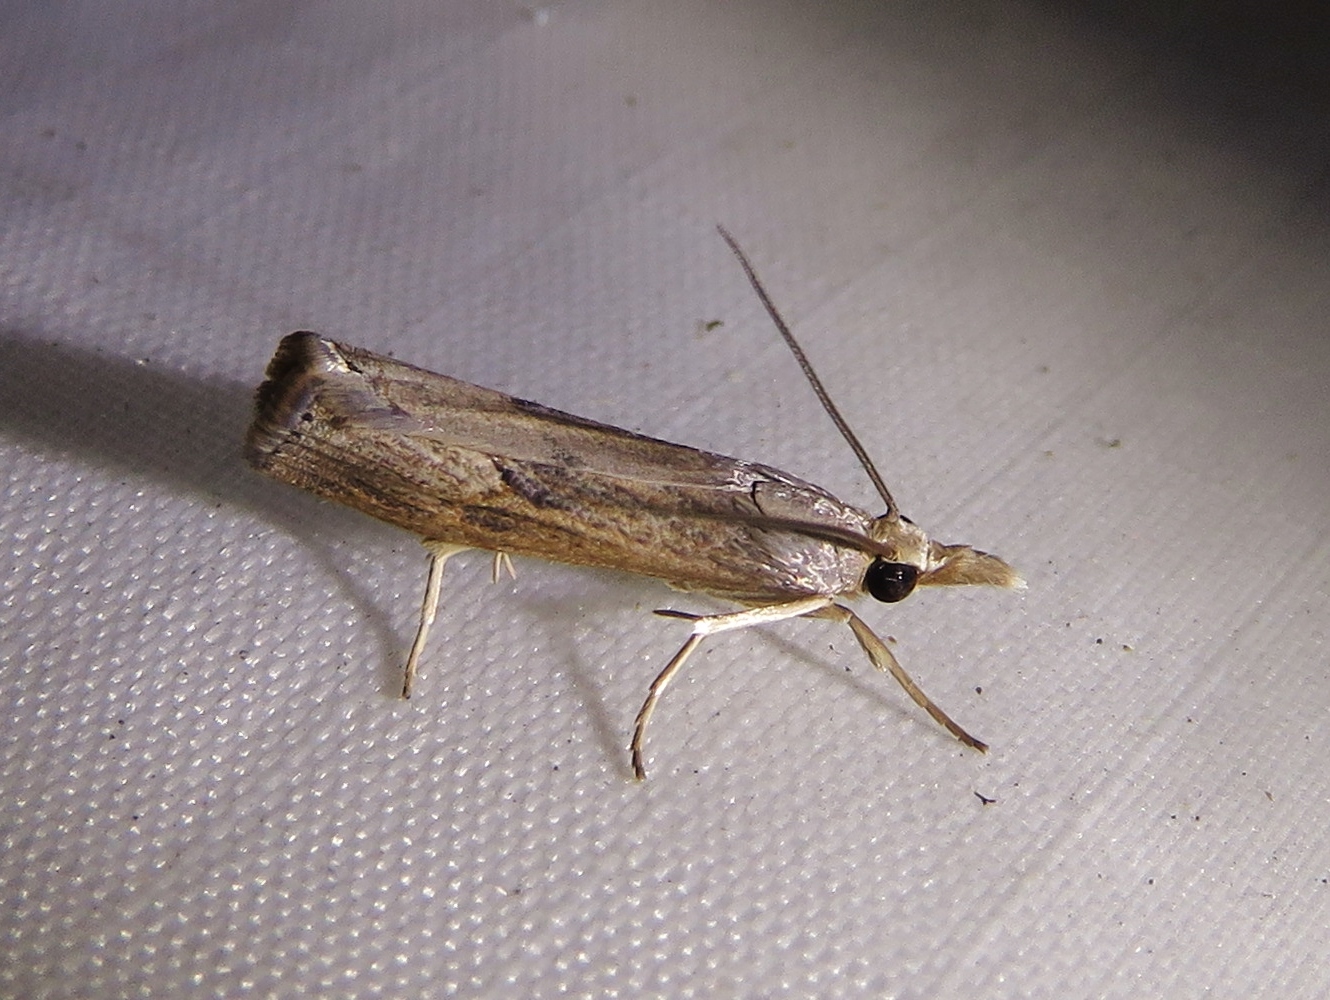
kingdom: Animalia
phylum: Arthropoda
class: Insecta
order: Lepidoptera
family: Crambidae
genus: Parapediasia
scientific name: Parapediasia teterellus
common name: Bluegrass webworm moth
